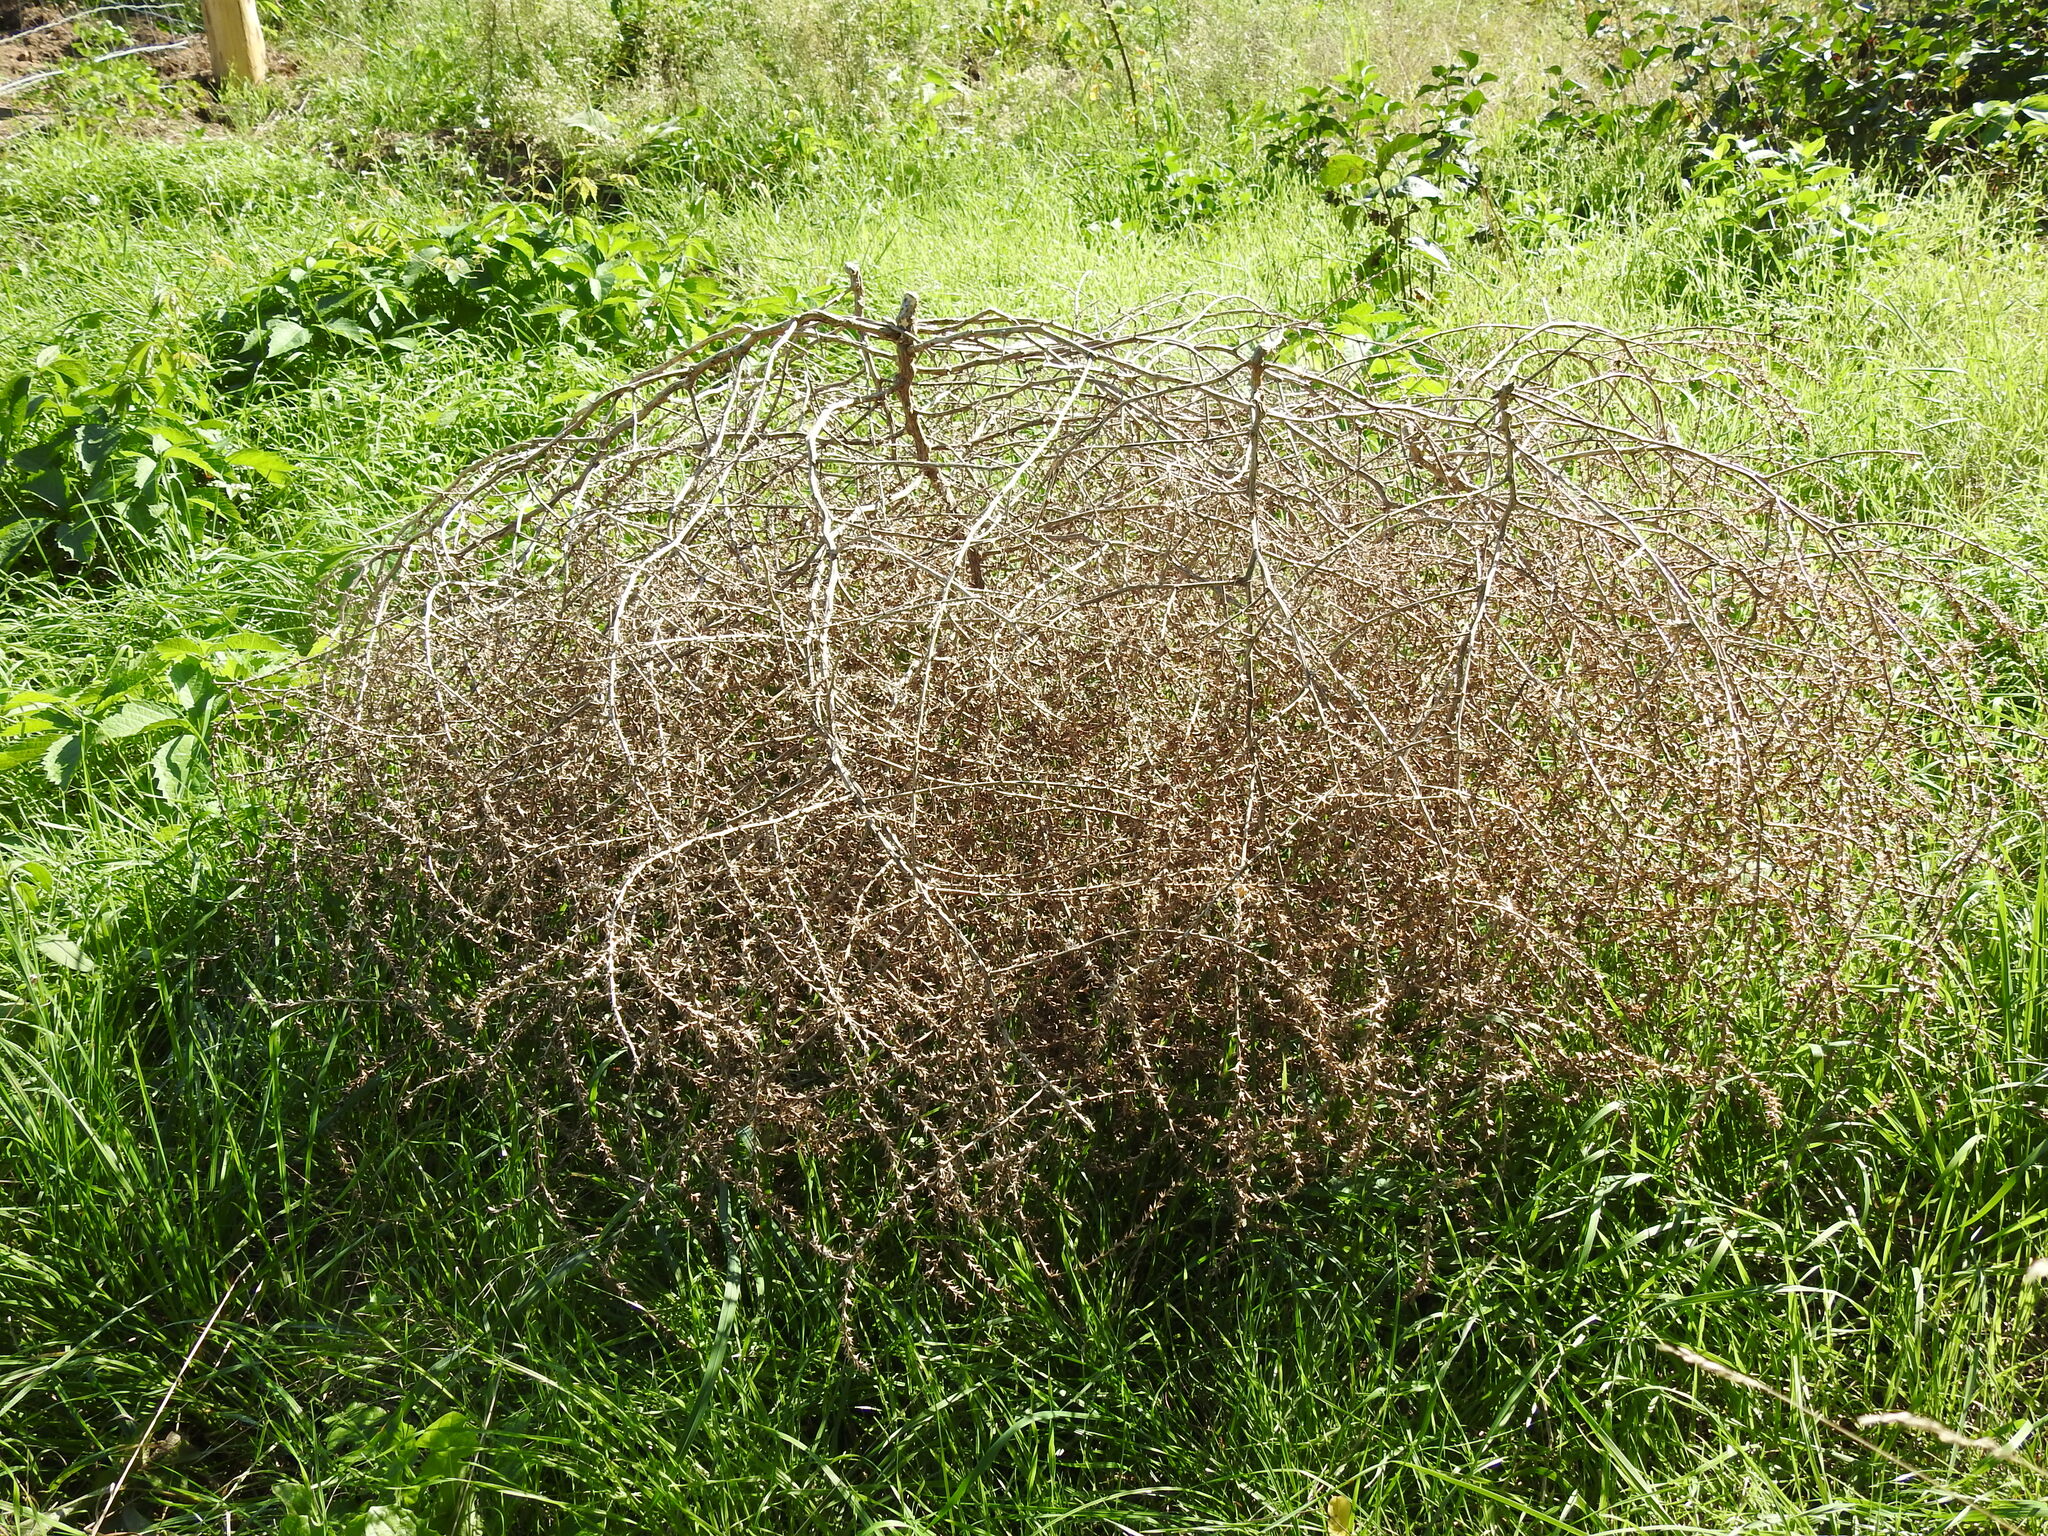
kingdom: Plantae
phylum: Tracheophyta
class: Magnoliopsida
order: Caryophyllales
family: Amaranthaceae
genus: Salsola
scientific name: Salsola tragus
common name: Prickly russian thistle
